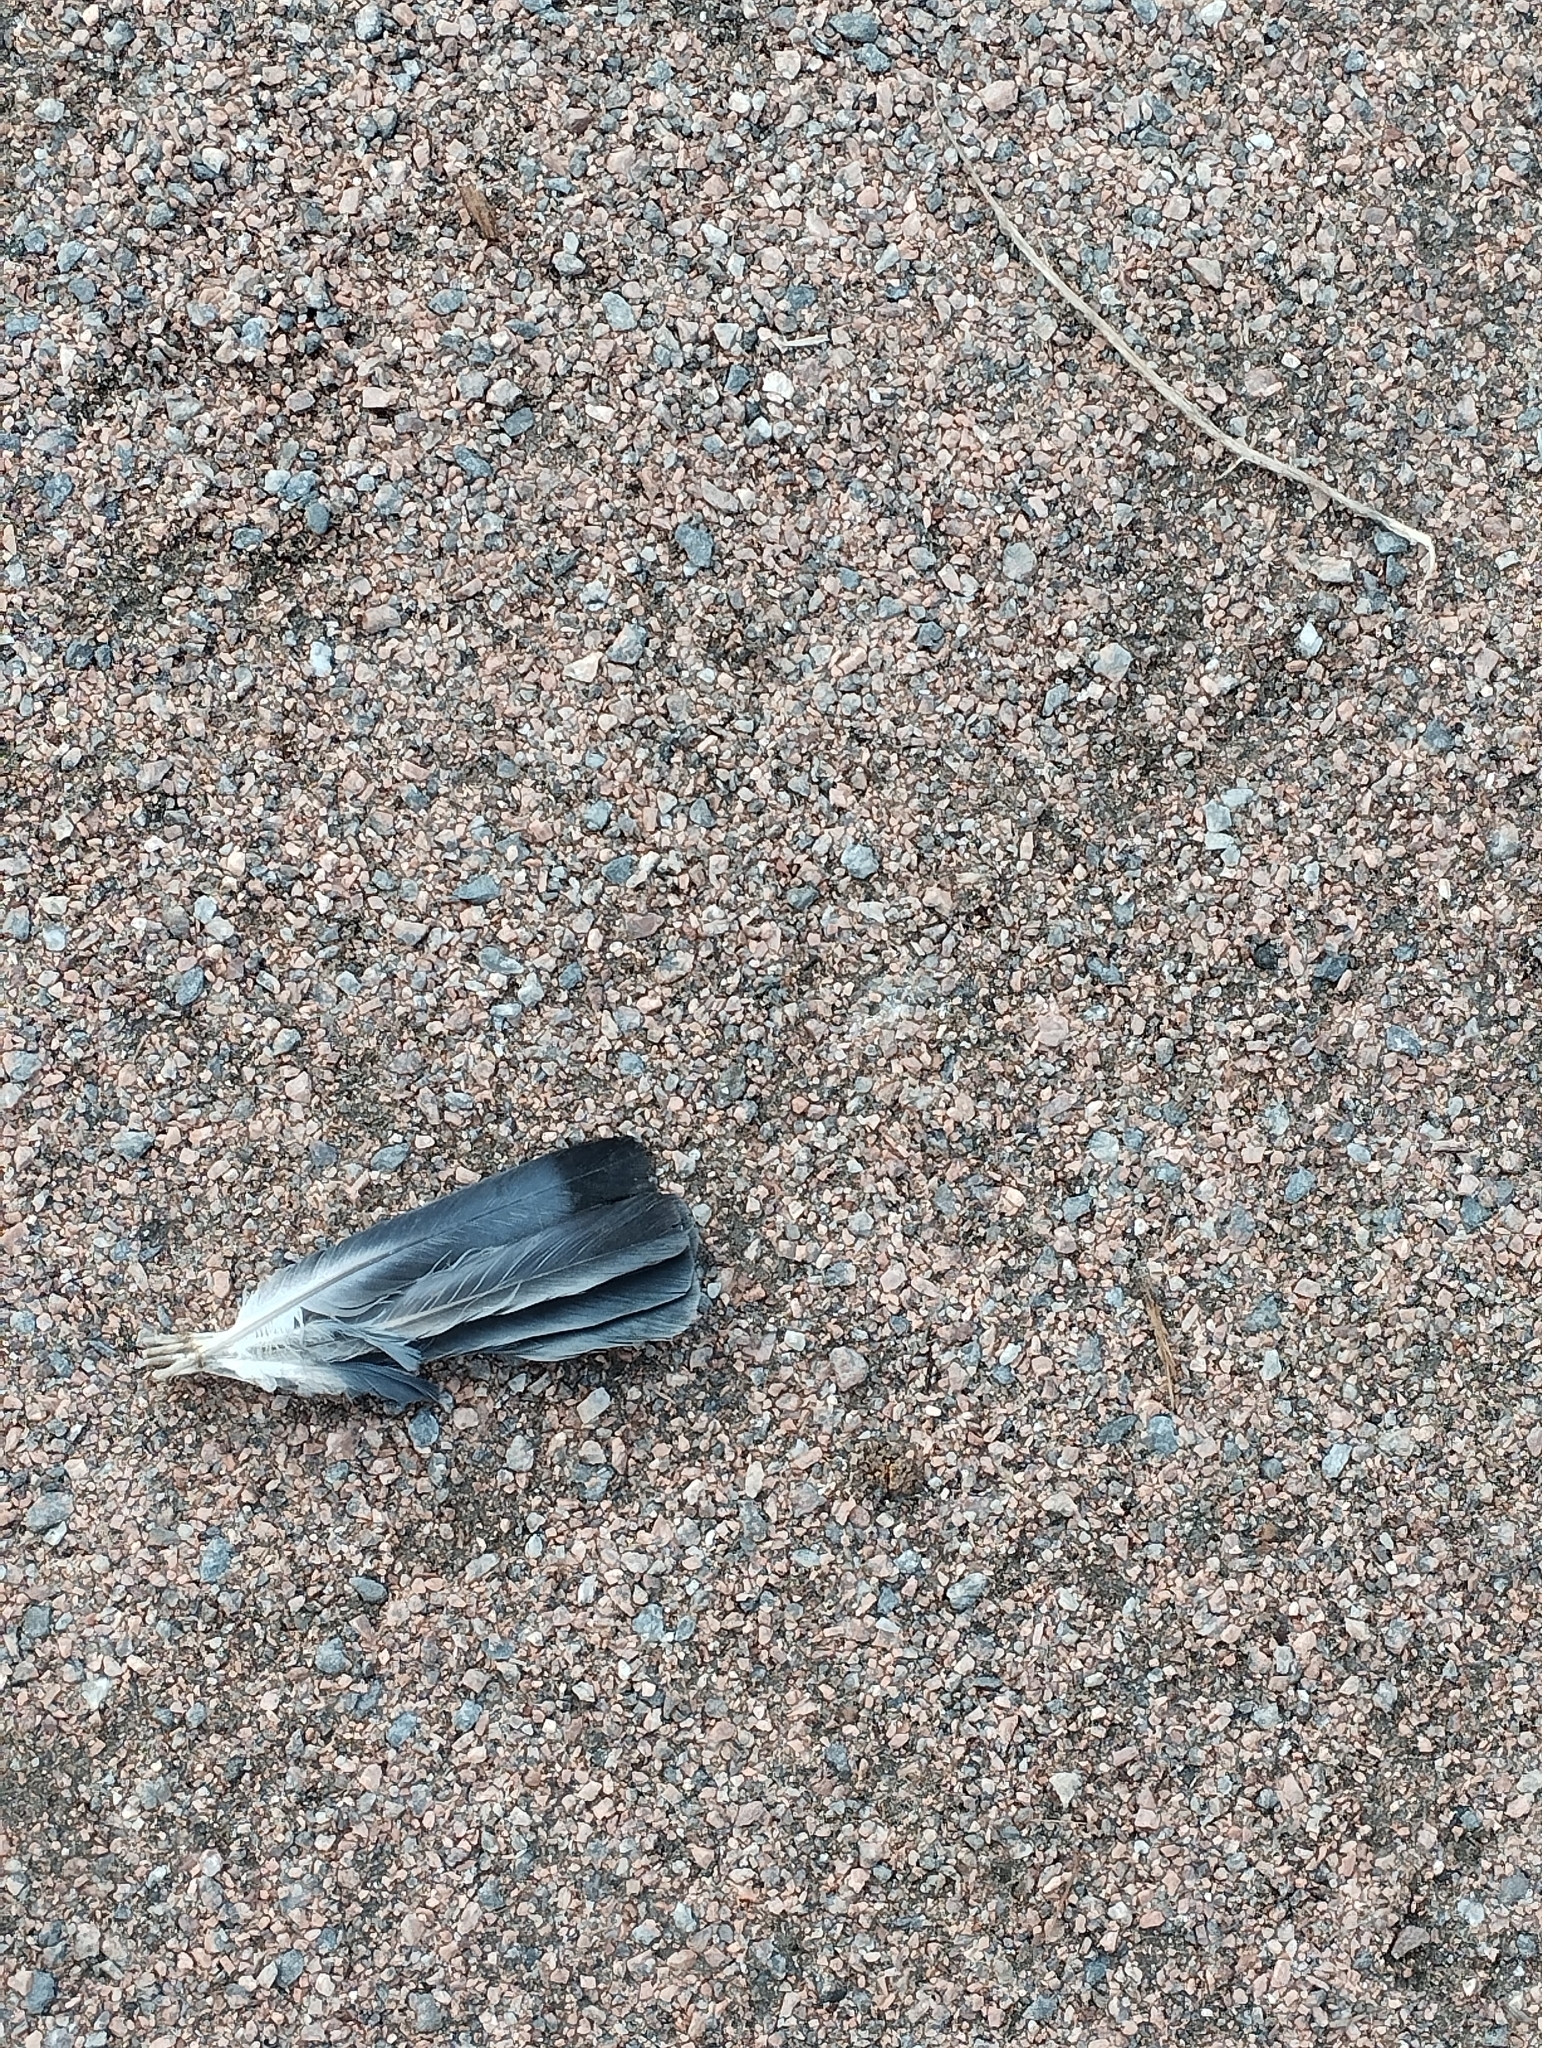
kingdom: Animalia
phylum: Chordata
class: Aves
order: Columbiformes
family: Columbidae
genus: Columba
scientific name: Columba livia
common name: Rock pigeon
